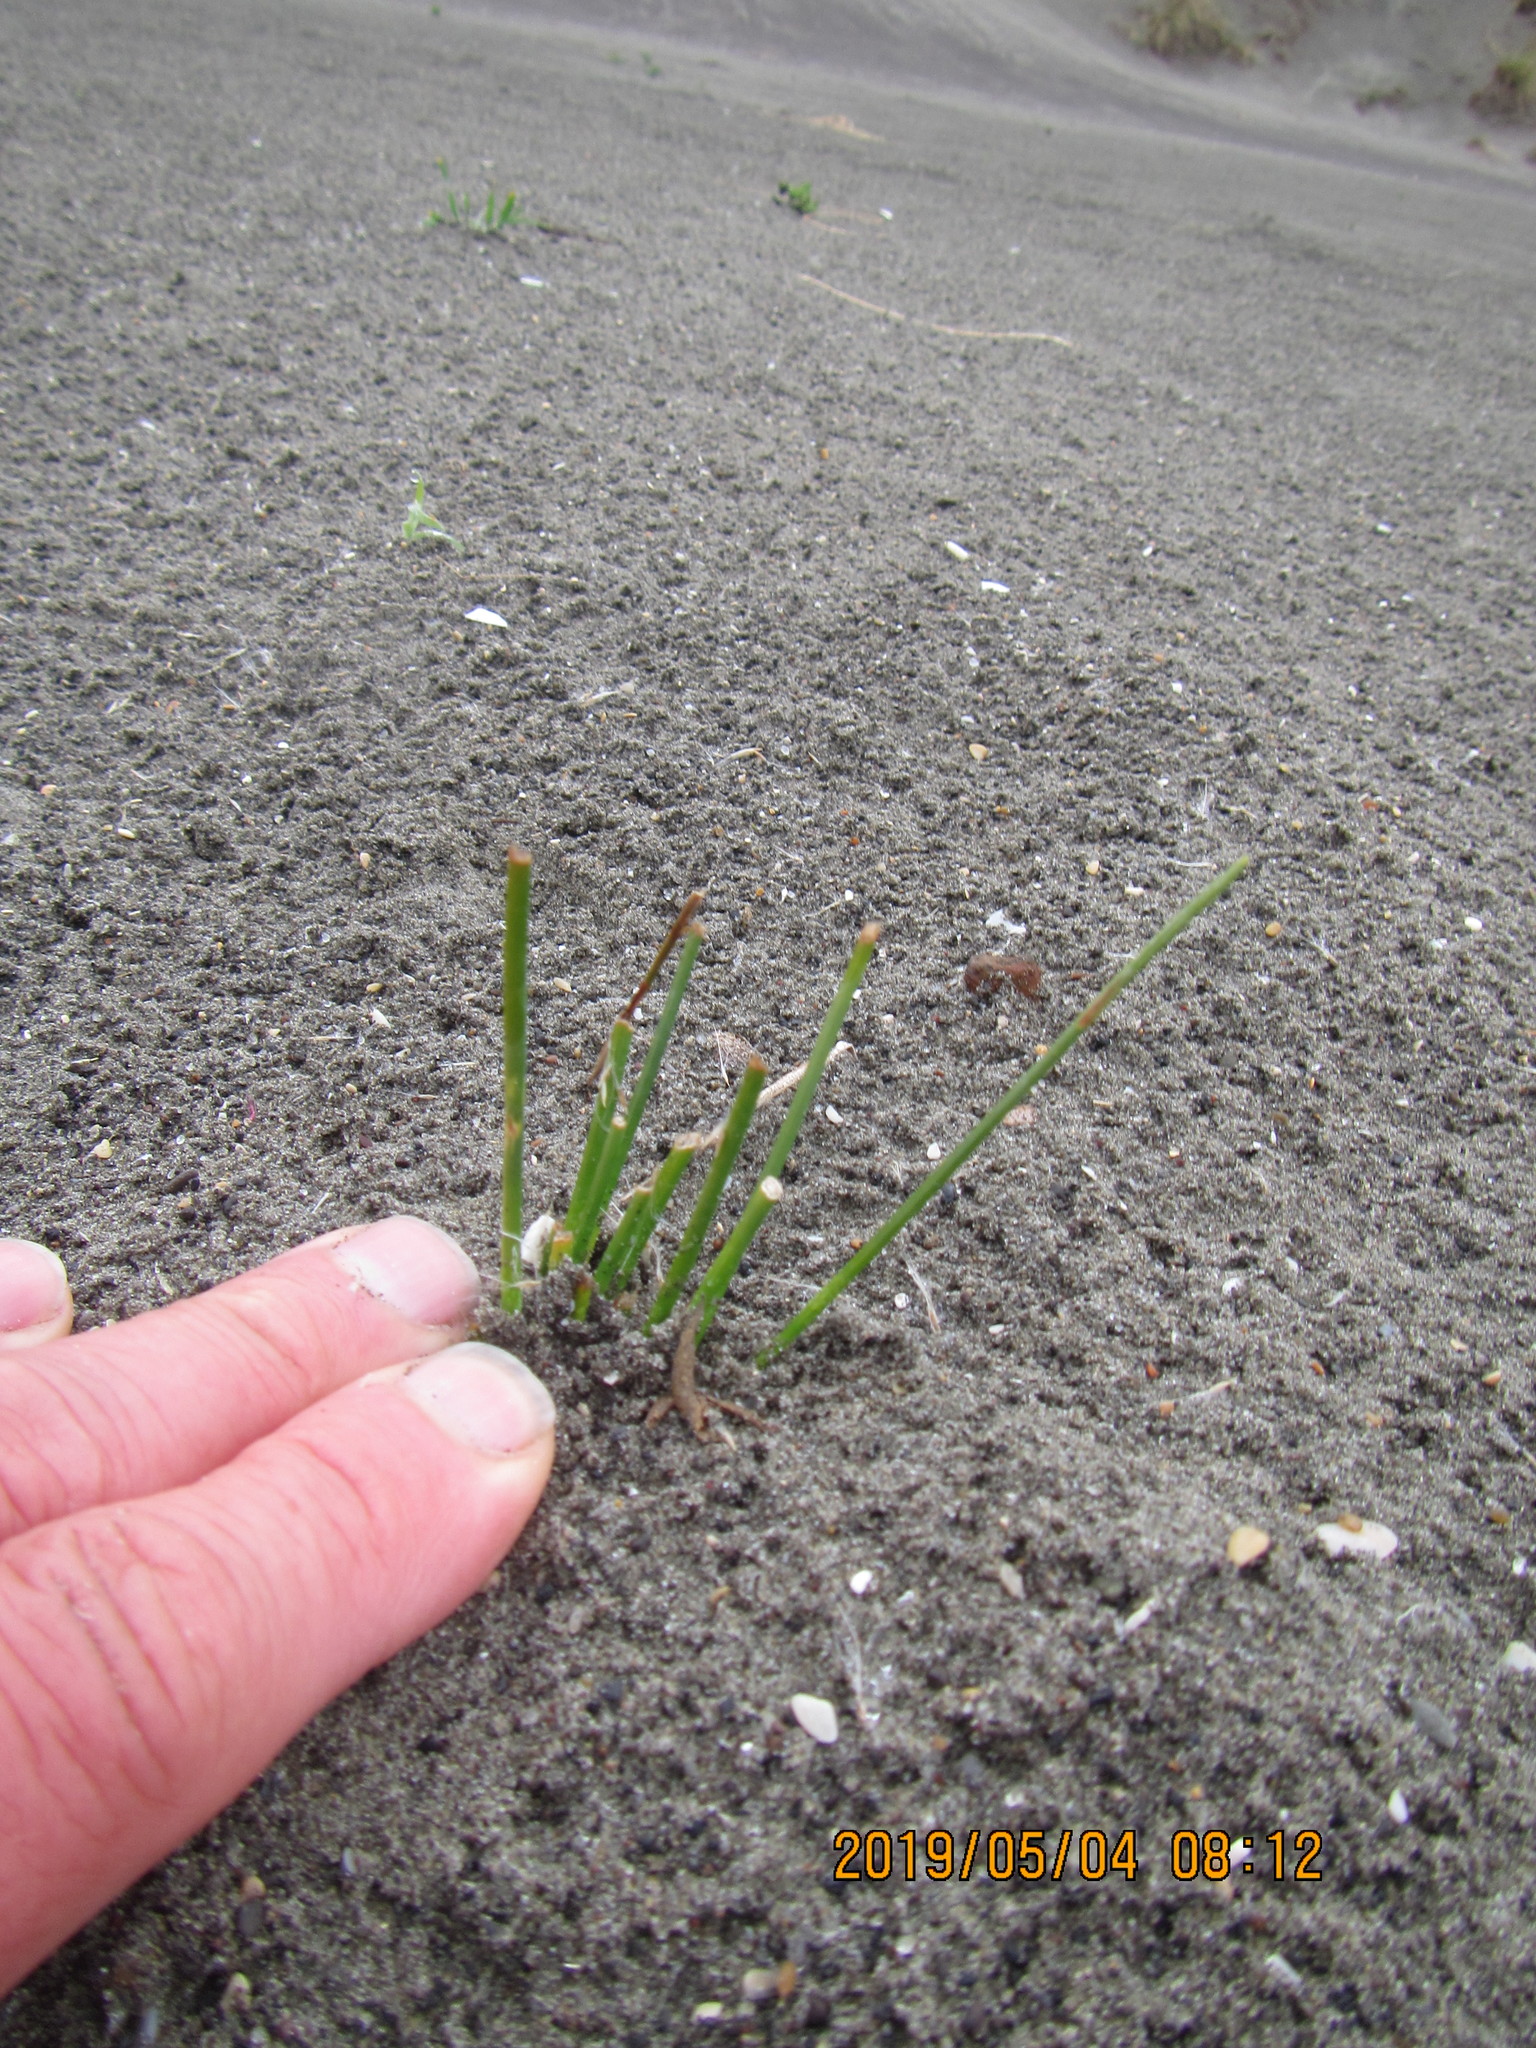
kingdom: Plantae
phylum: Tracheophyta
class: Liliopsida
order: Poales
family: Cyperaceae
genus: Ficinia
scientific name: Ficinia nodosa
